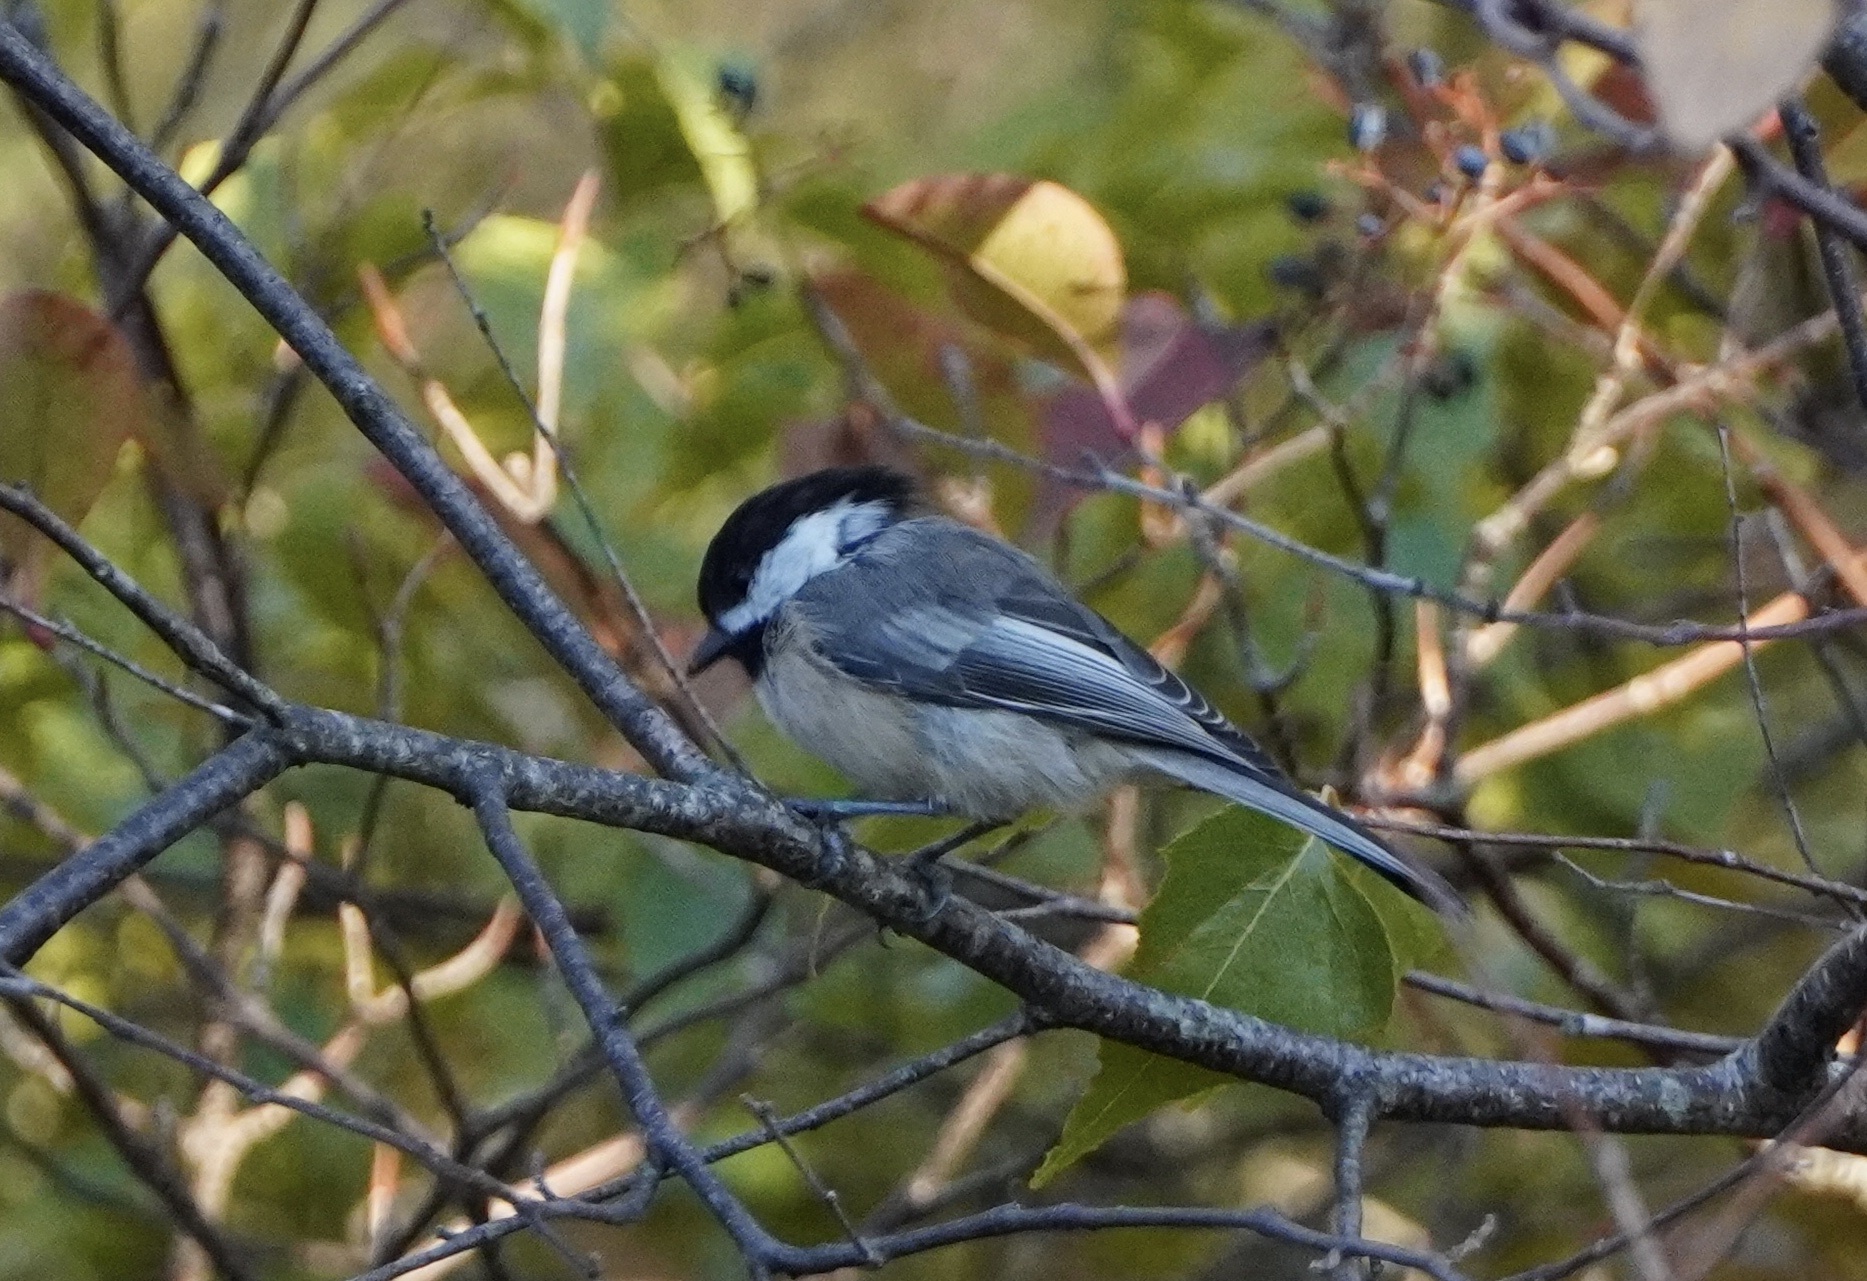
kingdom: Animalia
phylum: Chordata
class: Aves
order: Passeriformes
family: Paridae
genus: Poecile
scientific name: Poecile atricapillus
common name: Black-capped chickadee
